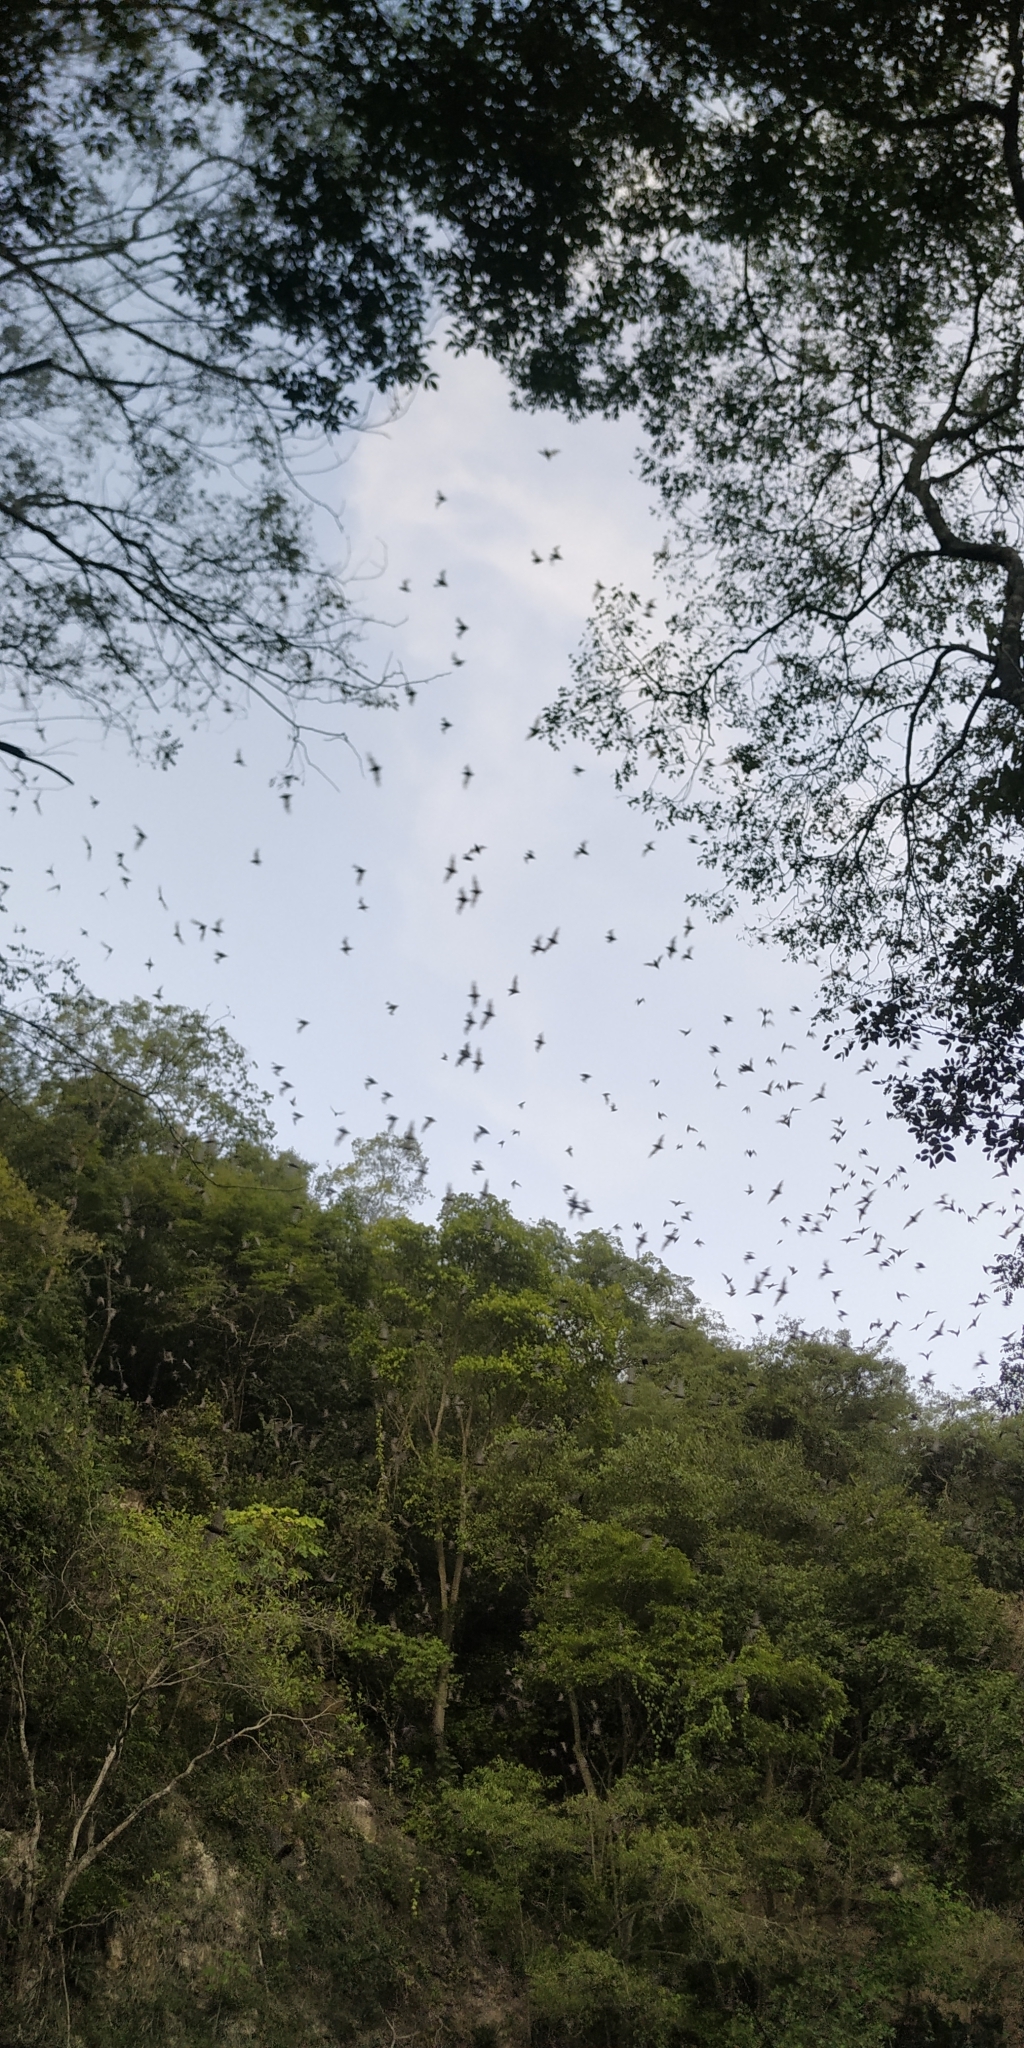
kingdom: Animalia
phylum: Chordata
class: Mammalia
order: Chiroptera
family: Molossidae
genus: Nyctinomops
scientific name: Nyctinomops laticaudatus
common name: Broad-eared free-tailed bat
